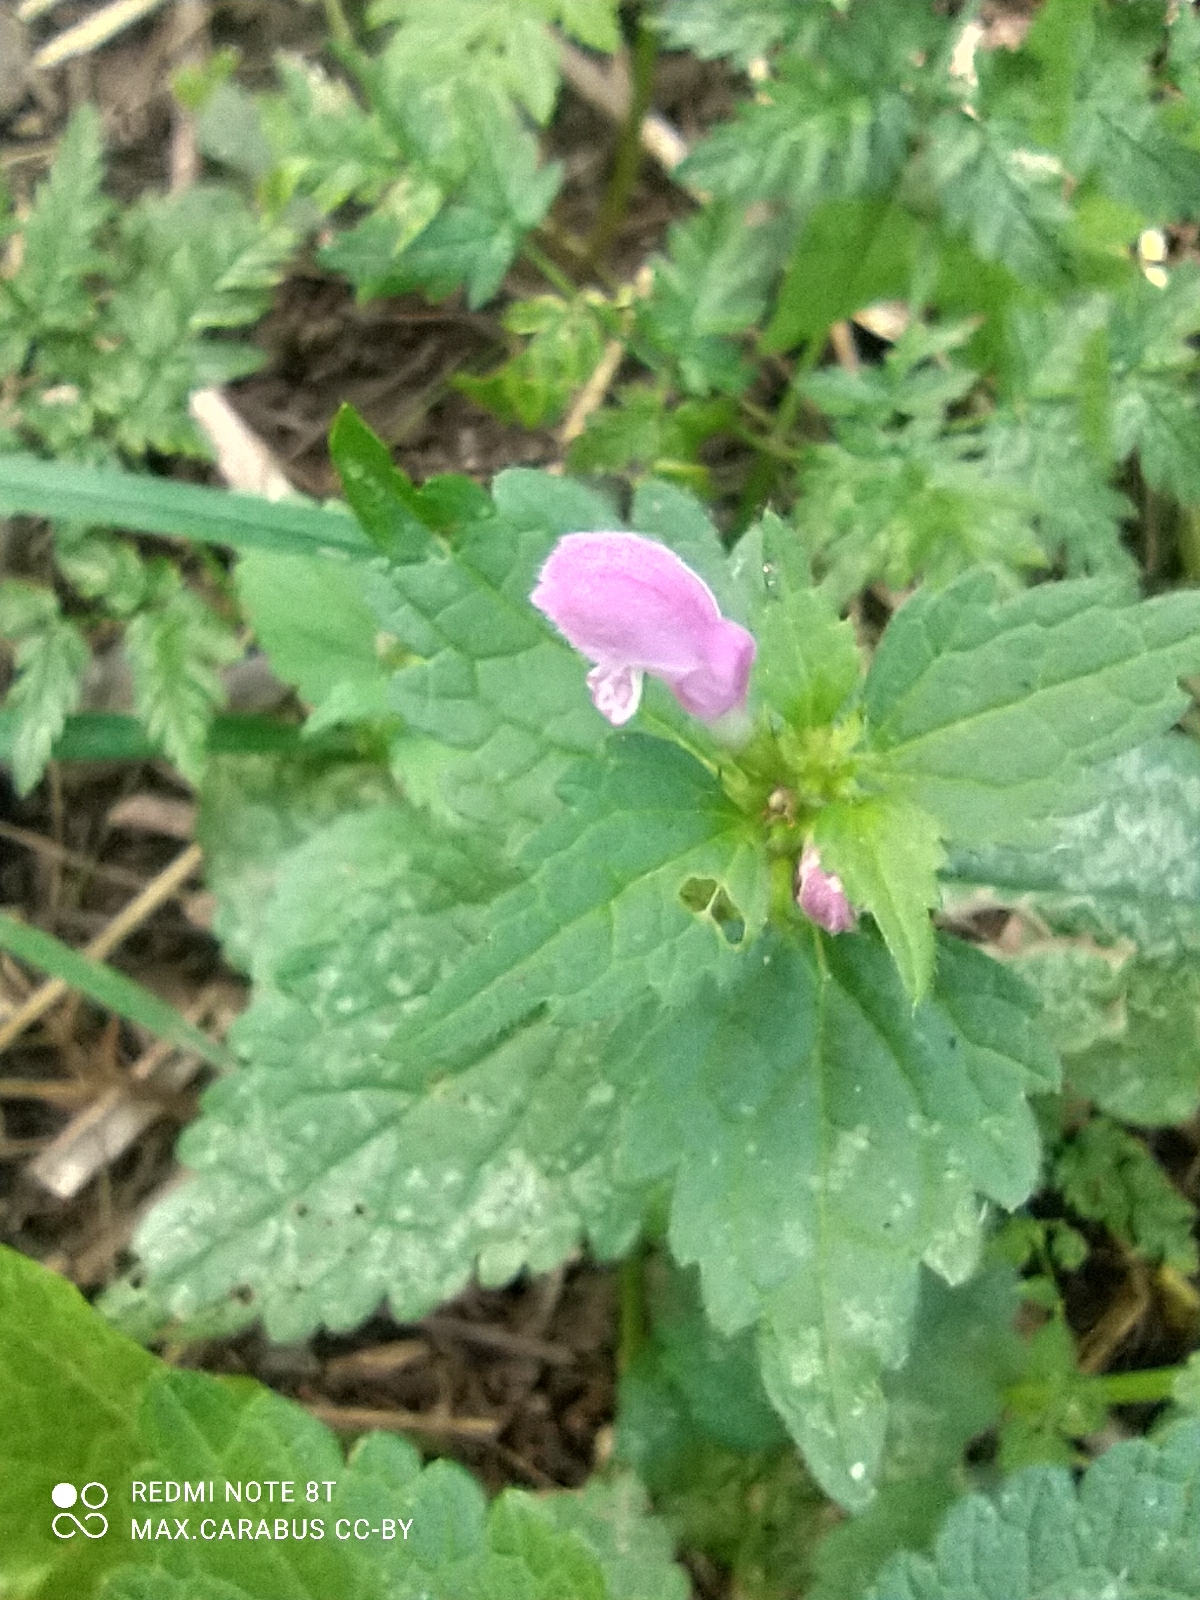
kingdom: Plantae
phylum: Tracheophyta
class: Magnoliopsida
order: Lamiales
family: Lamiaceae
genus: Lamium
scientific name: Lamium maculatum
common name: Spotted dead-nettle
